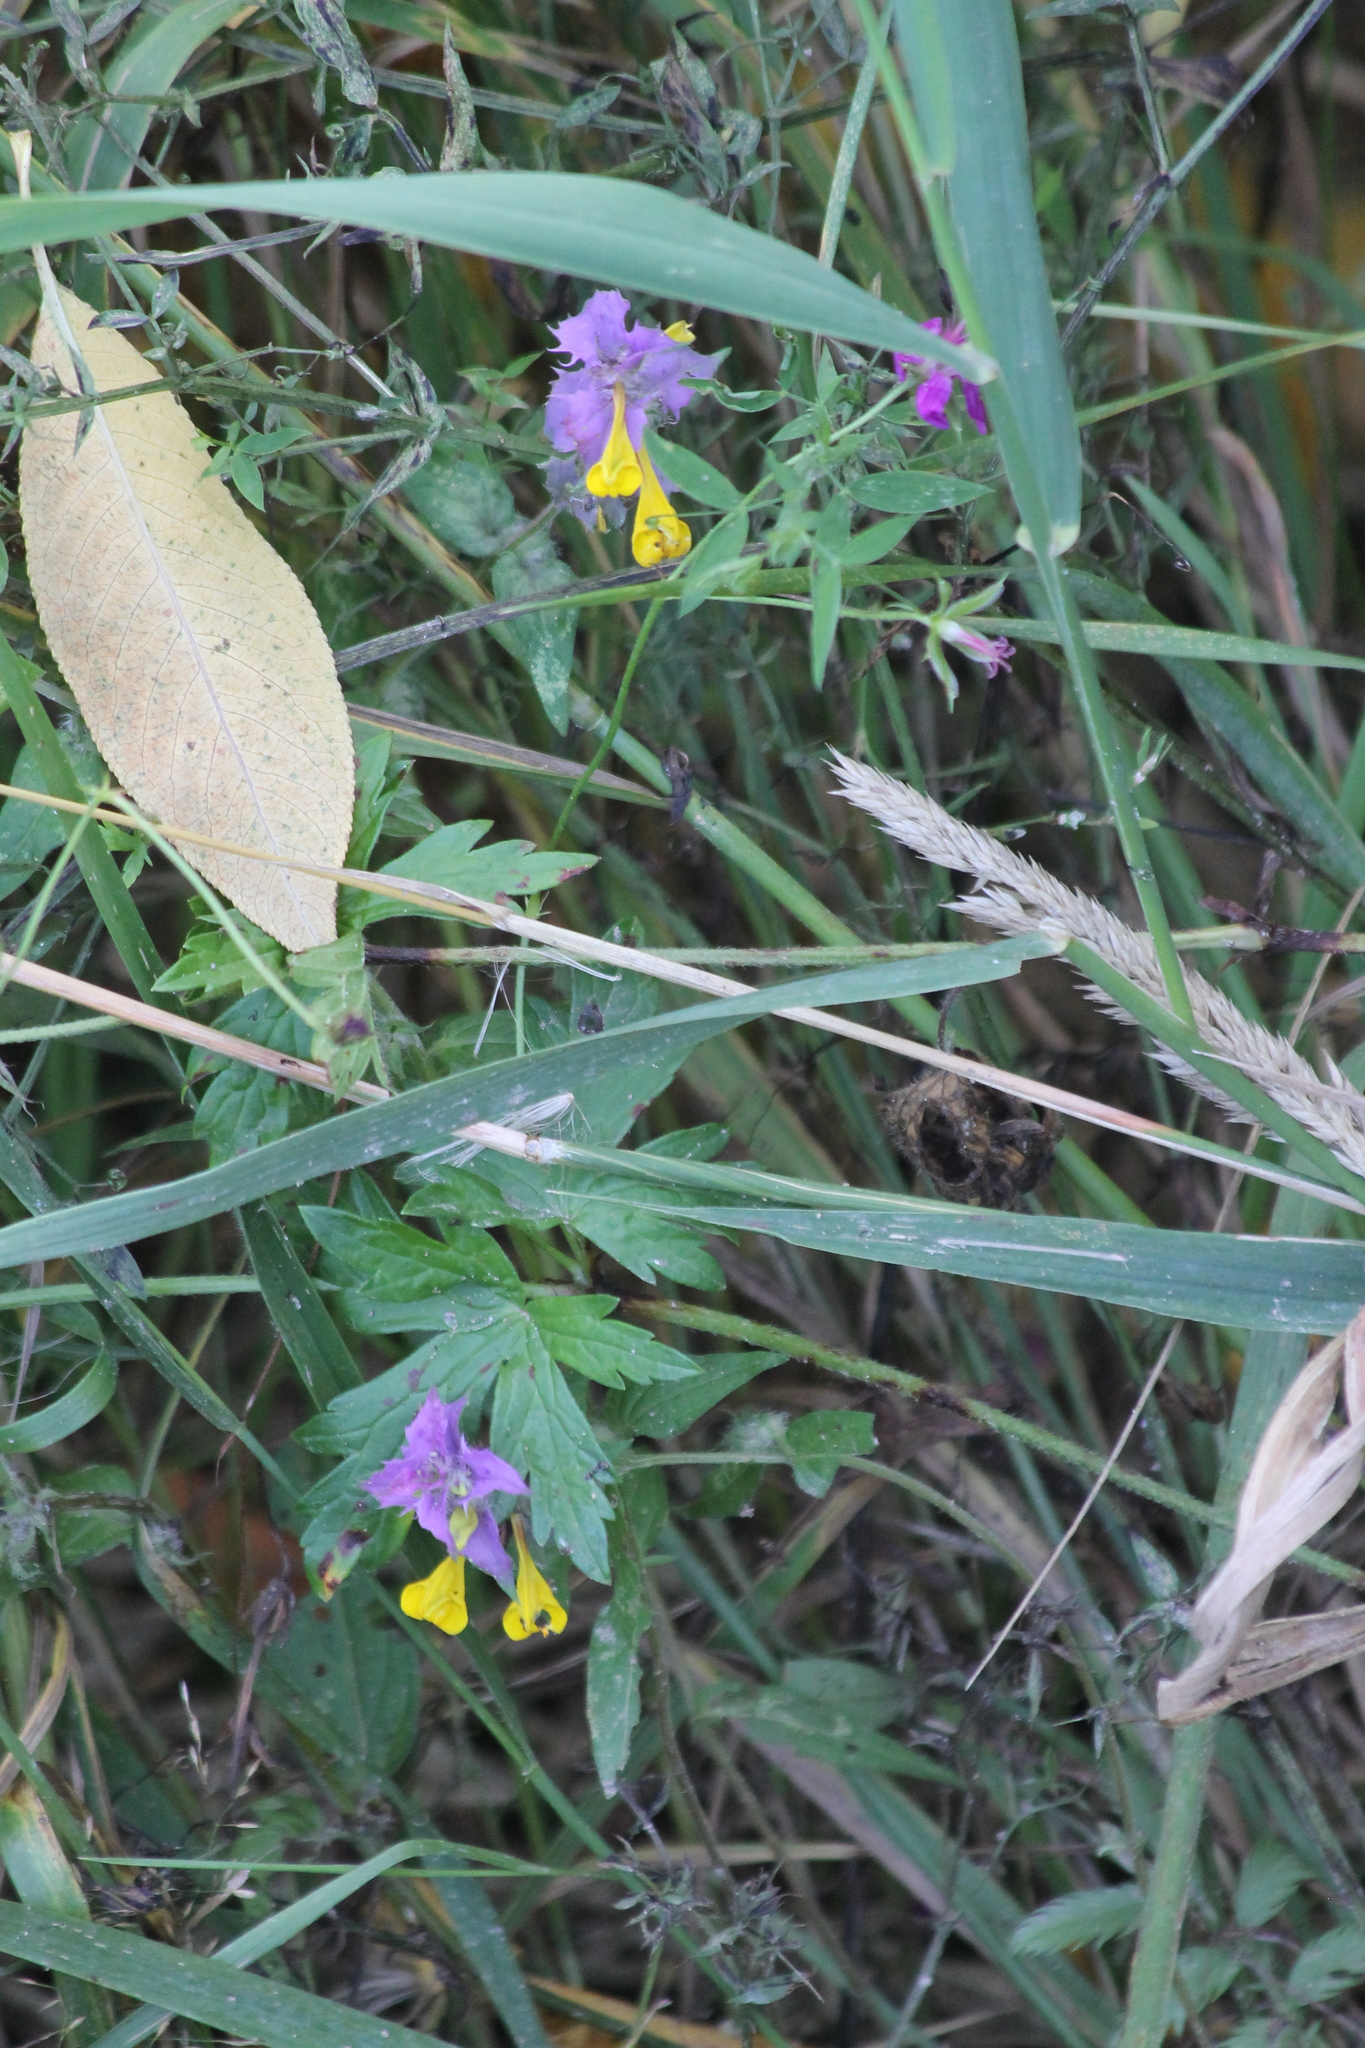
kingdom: Plantae
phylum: Tracheophyta
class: Magnoliopsida
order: Lamiales
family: Orobanchaceae
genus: Melampyrum
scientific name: Melampyrum nemorosum
